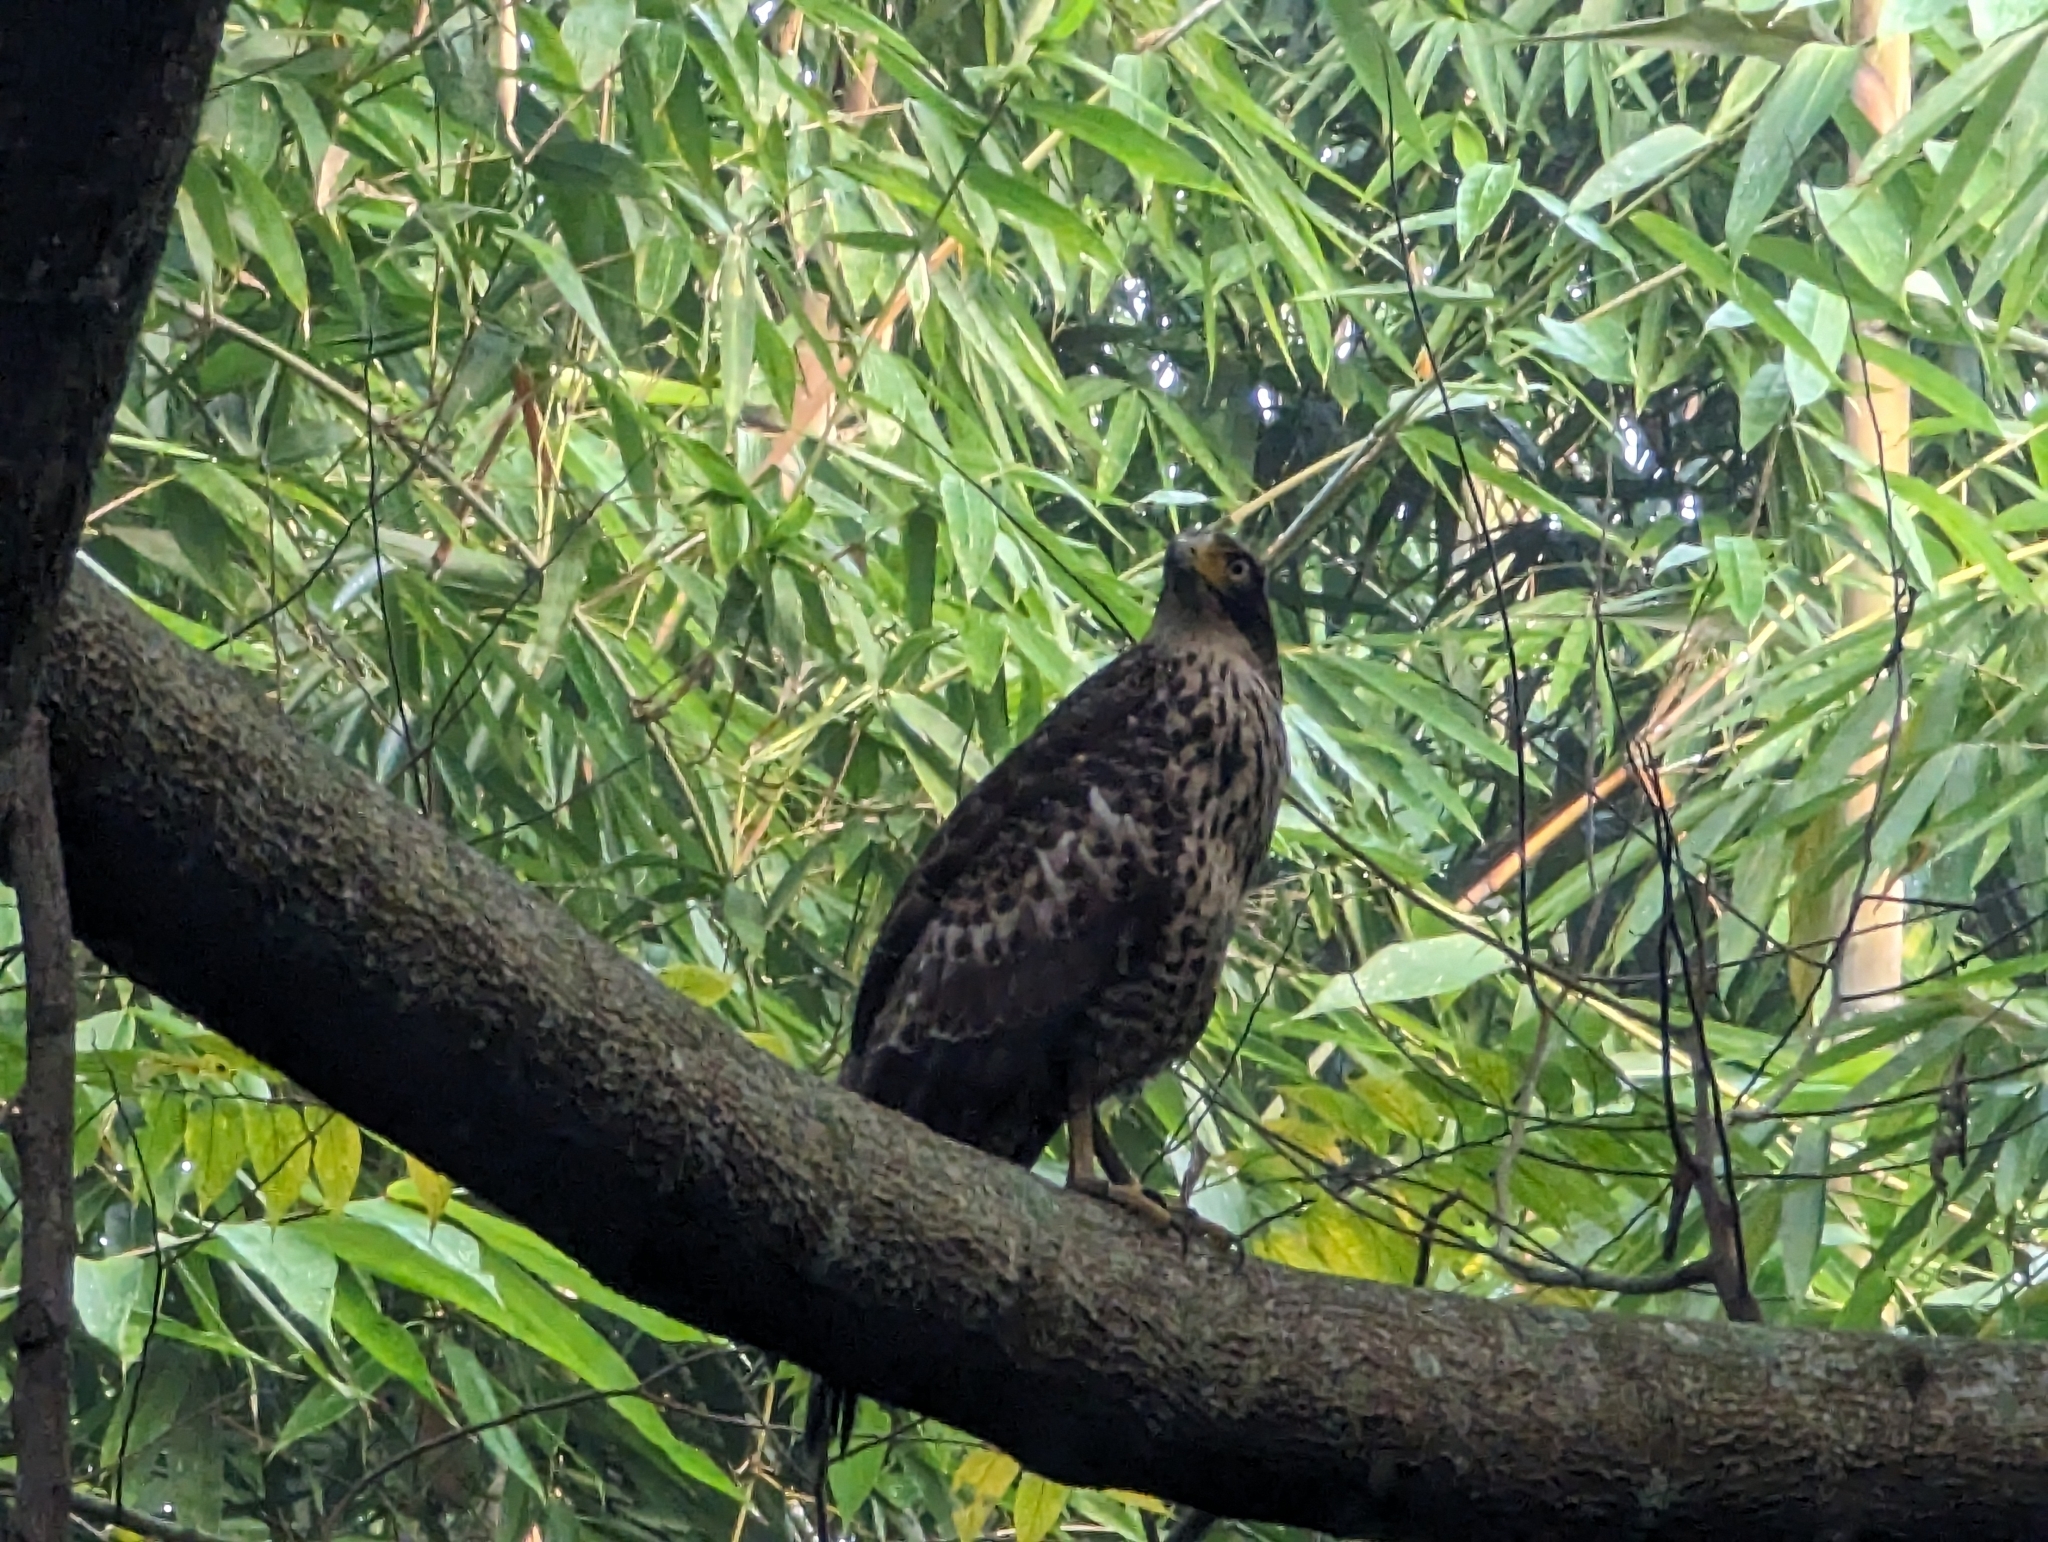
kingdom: Animalia
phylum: Chordata
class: Aves
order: Accipitriformes
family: Accipitridae
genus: Spilornis
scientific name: Spilornis cheela
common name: Crested serpent eagle
